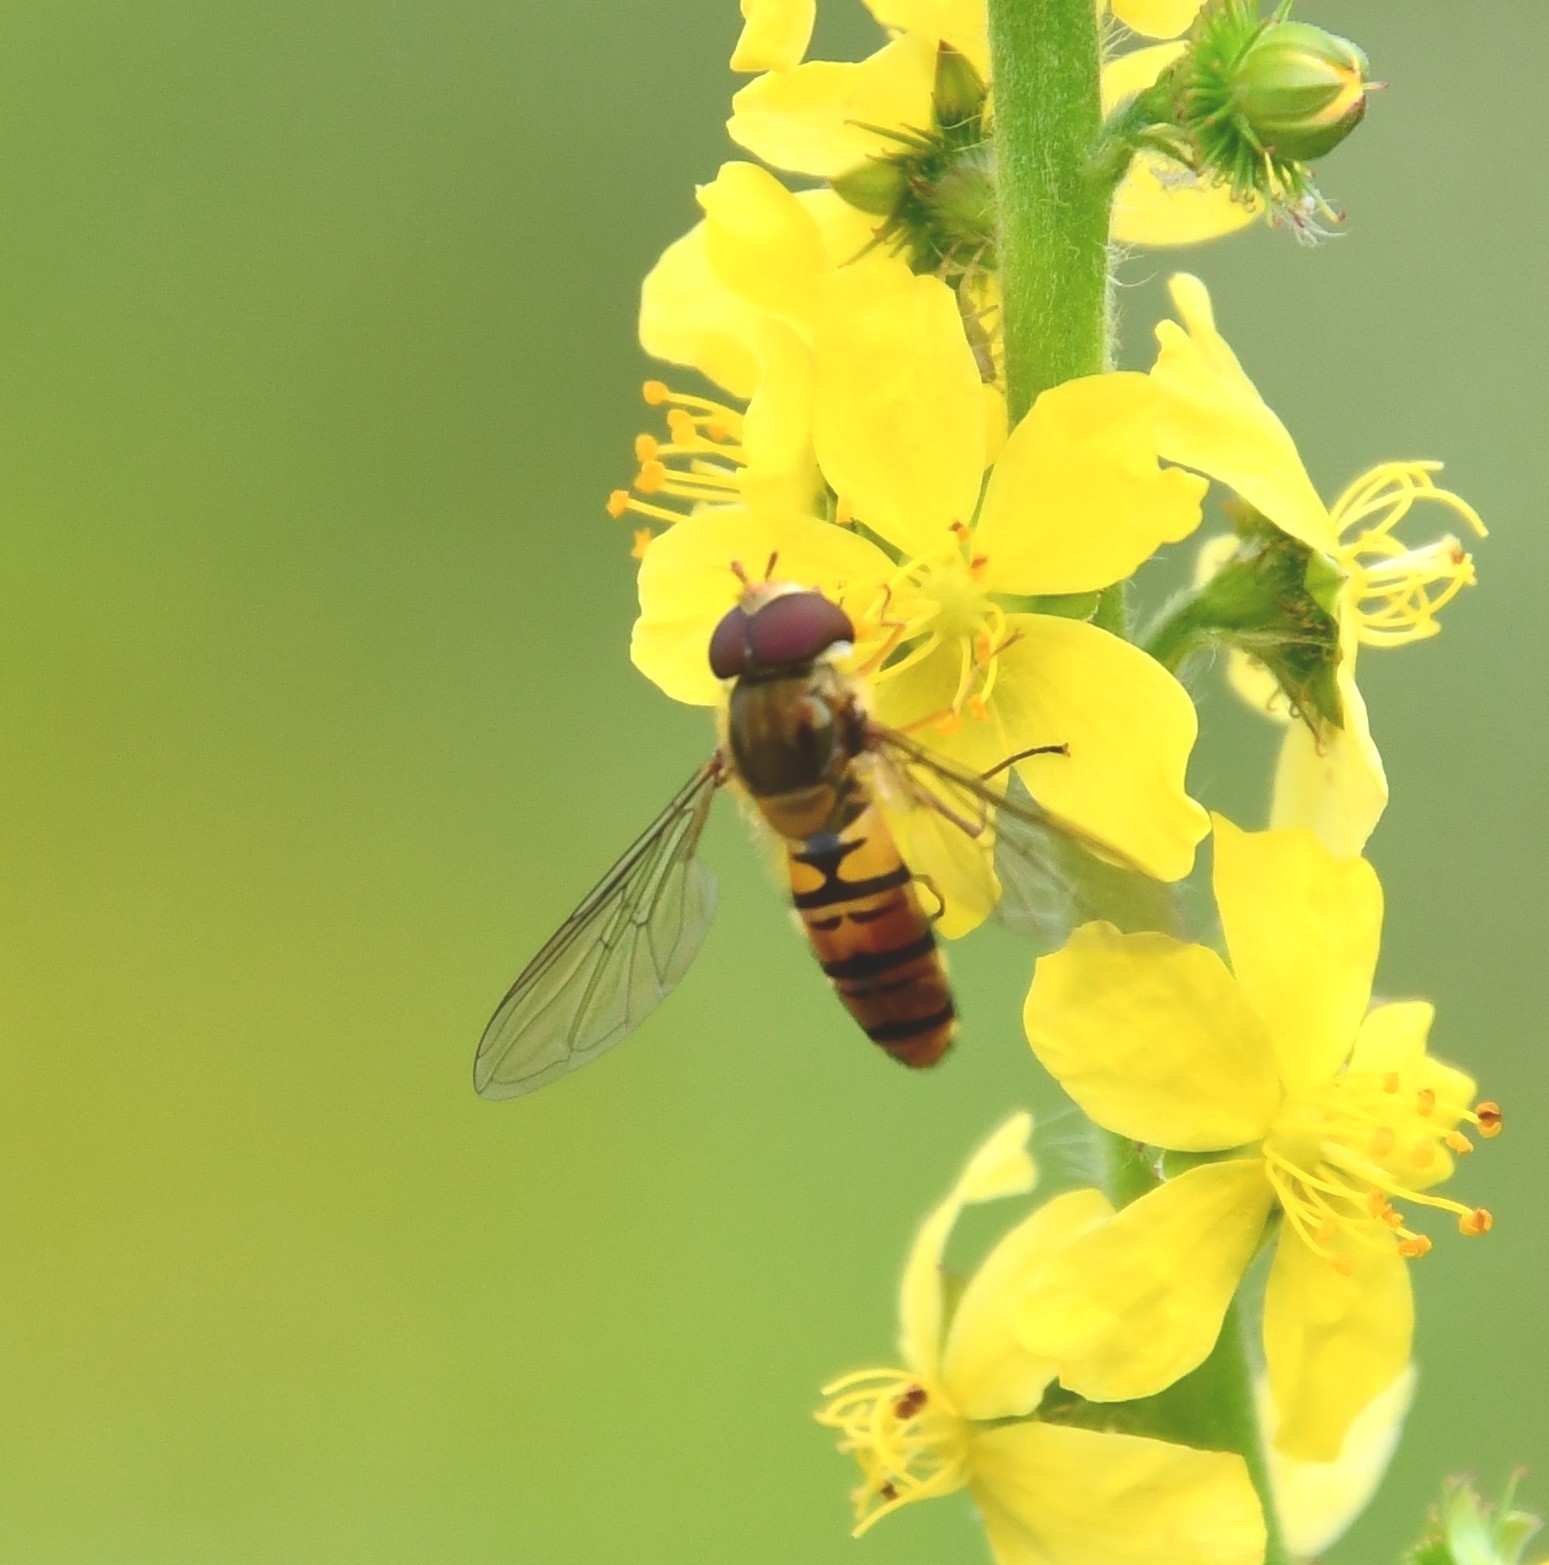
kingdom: Animalia
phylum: Arthropoda
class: Insecta
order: Diptera
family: Syrphidae
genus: Episyrphus
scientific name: Episyrphus balteatus
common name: Marmalade hoverfly
